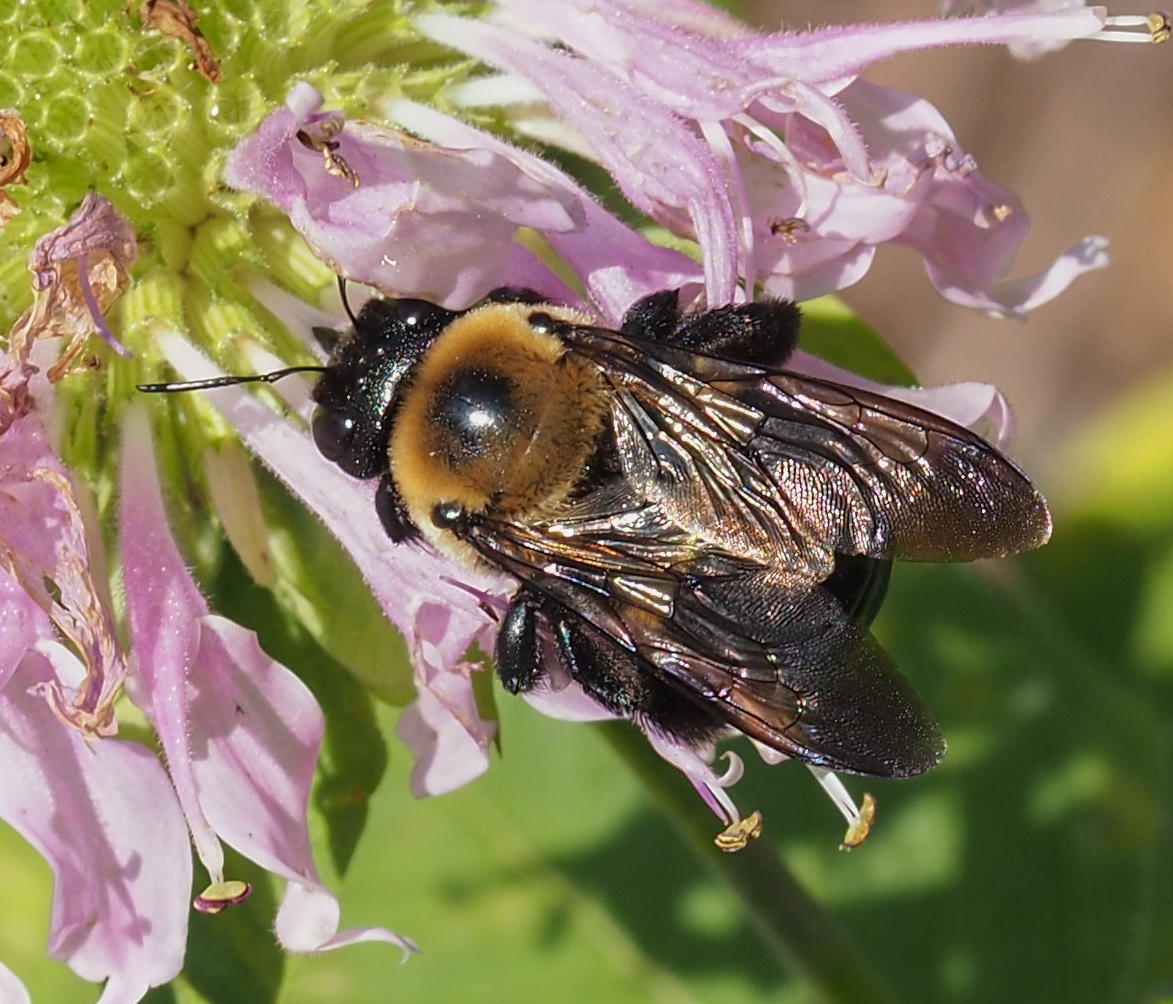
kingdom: Animalia
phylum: Arthropoda
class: Insecta
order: Hymenoptera
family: Apidae
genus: Xylocopa
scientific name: Xylocopa virginica
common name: Carpenter bee
